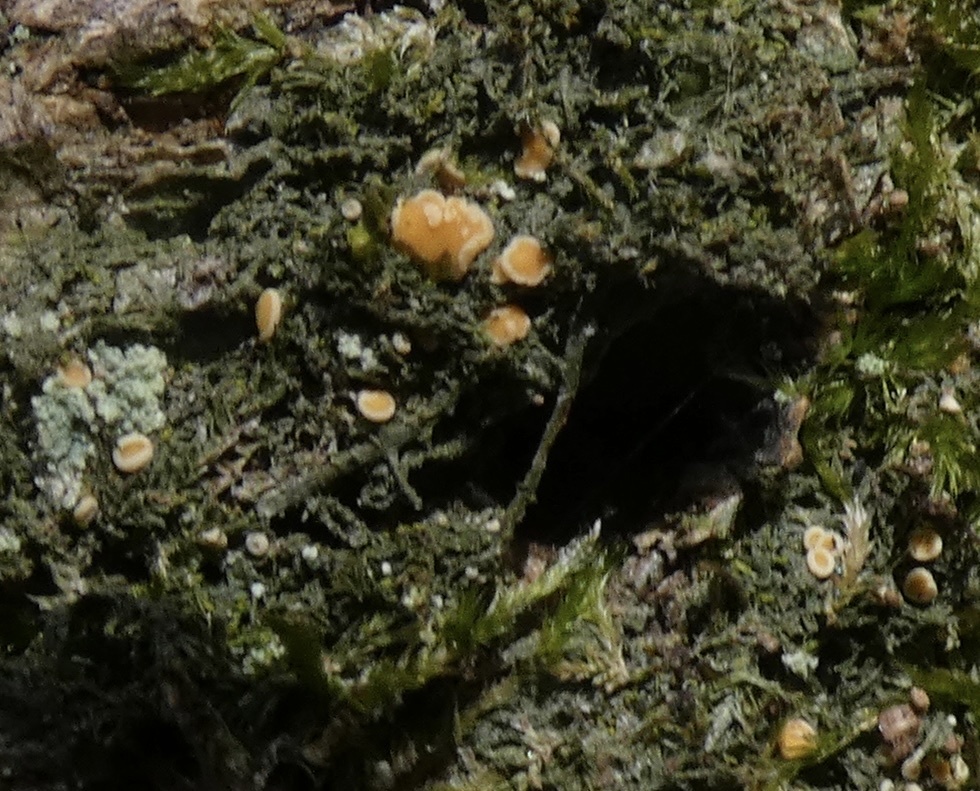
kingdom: Fungi
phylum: Ascomycota
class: Lecanoromycetes
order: Ostropales
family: Coenogoniaceae
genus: Coenogonium
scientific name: Coenogonium luteum
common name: Orange dimple lichen
